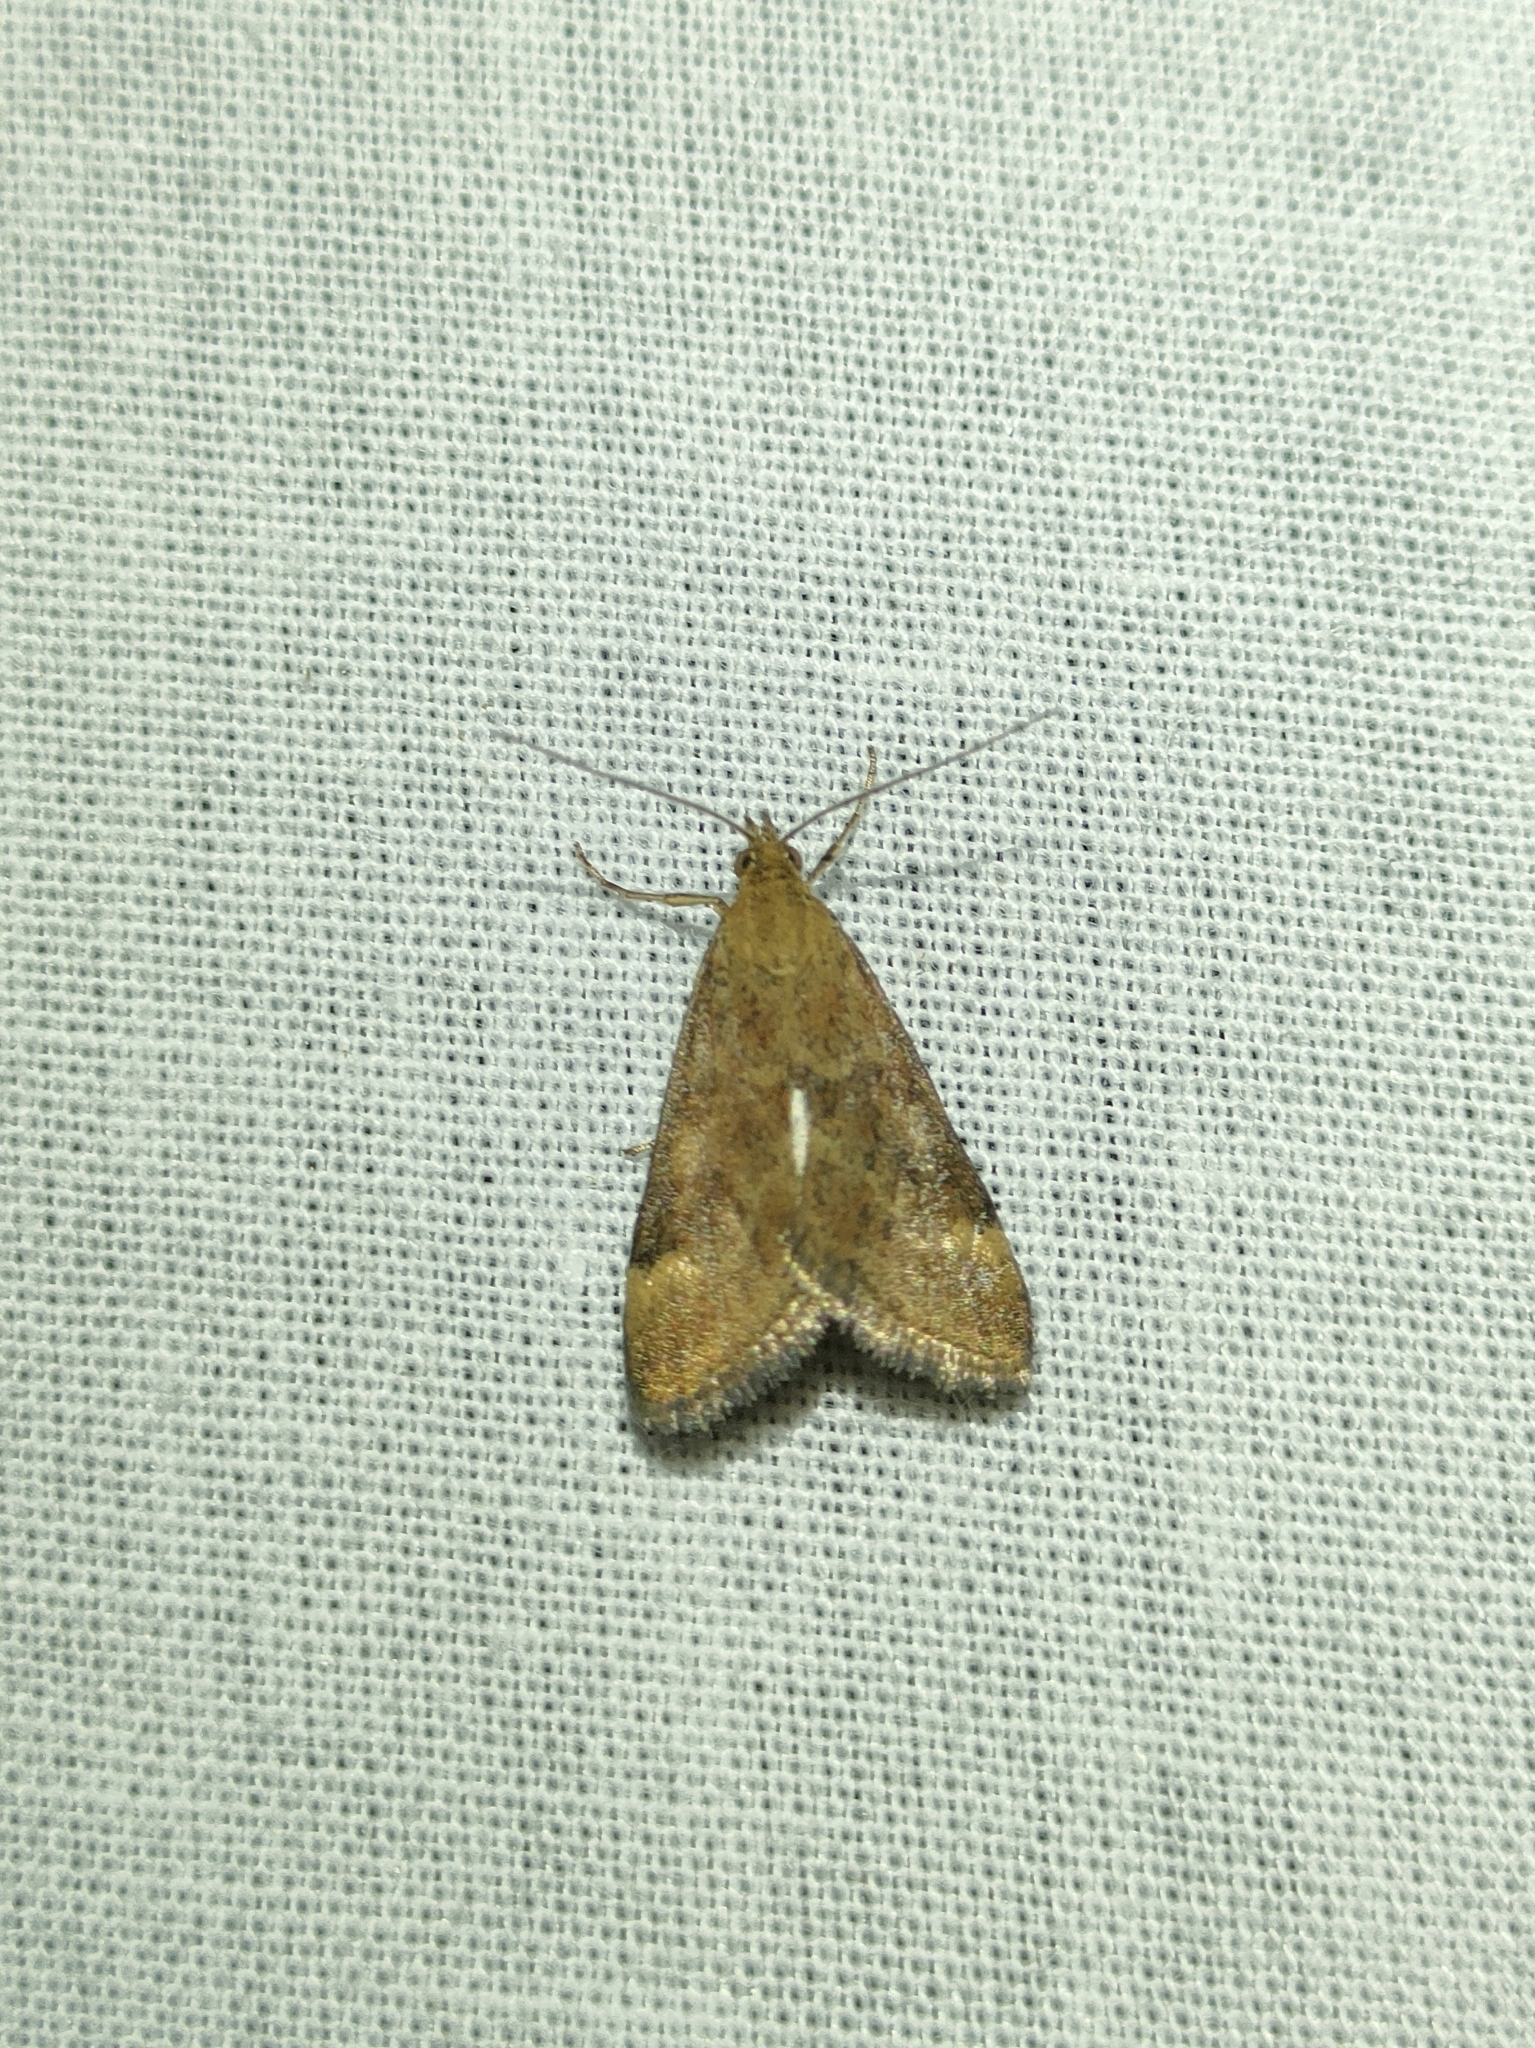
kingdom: Animalia
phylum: Arthropoda
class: Insecta
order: Lepidoptera
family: Crambidae
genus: Pyrausta
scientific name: Pyrausta despicata
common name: Straw-barred pearl
